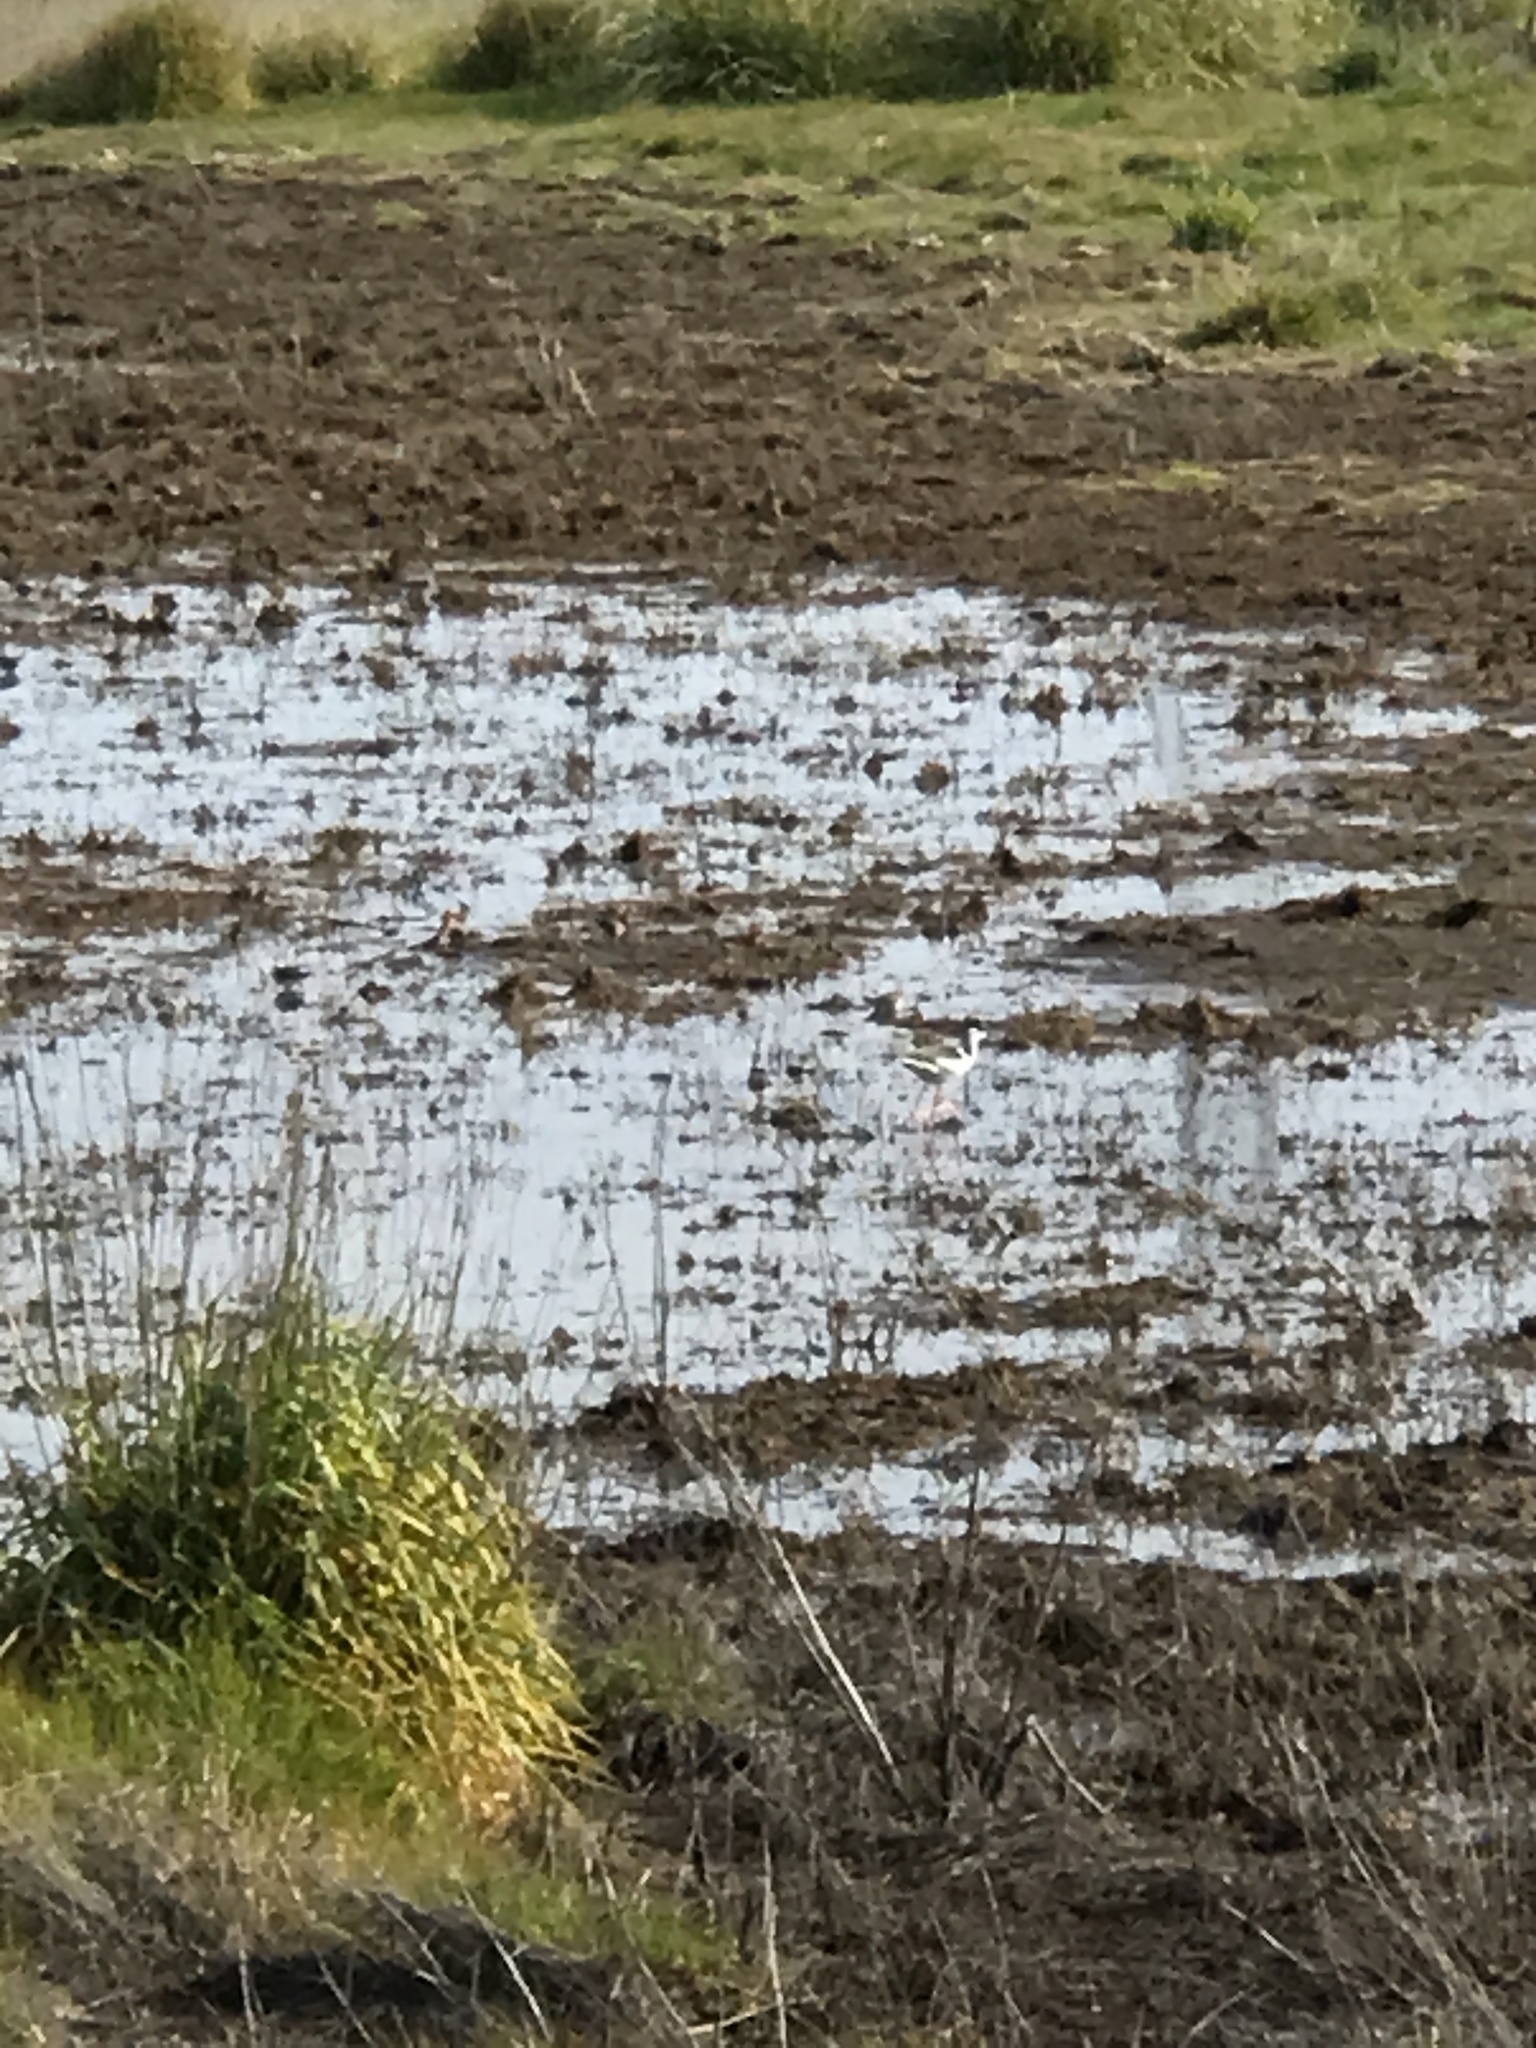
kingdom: Animalia
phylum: Chordata
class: Aves
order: Charadriiformes
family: Recurvirostridae
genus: Himantopus
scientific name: Himantopus mexicanus
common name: Black-necked stilt
